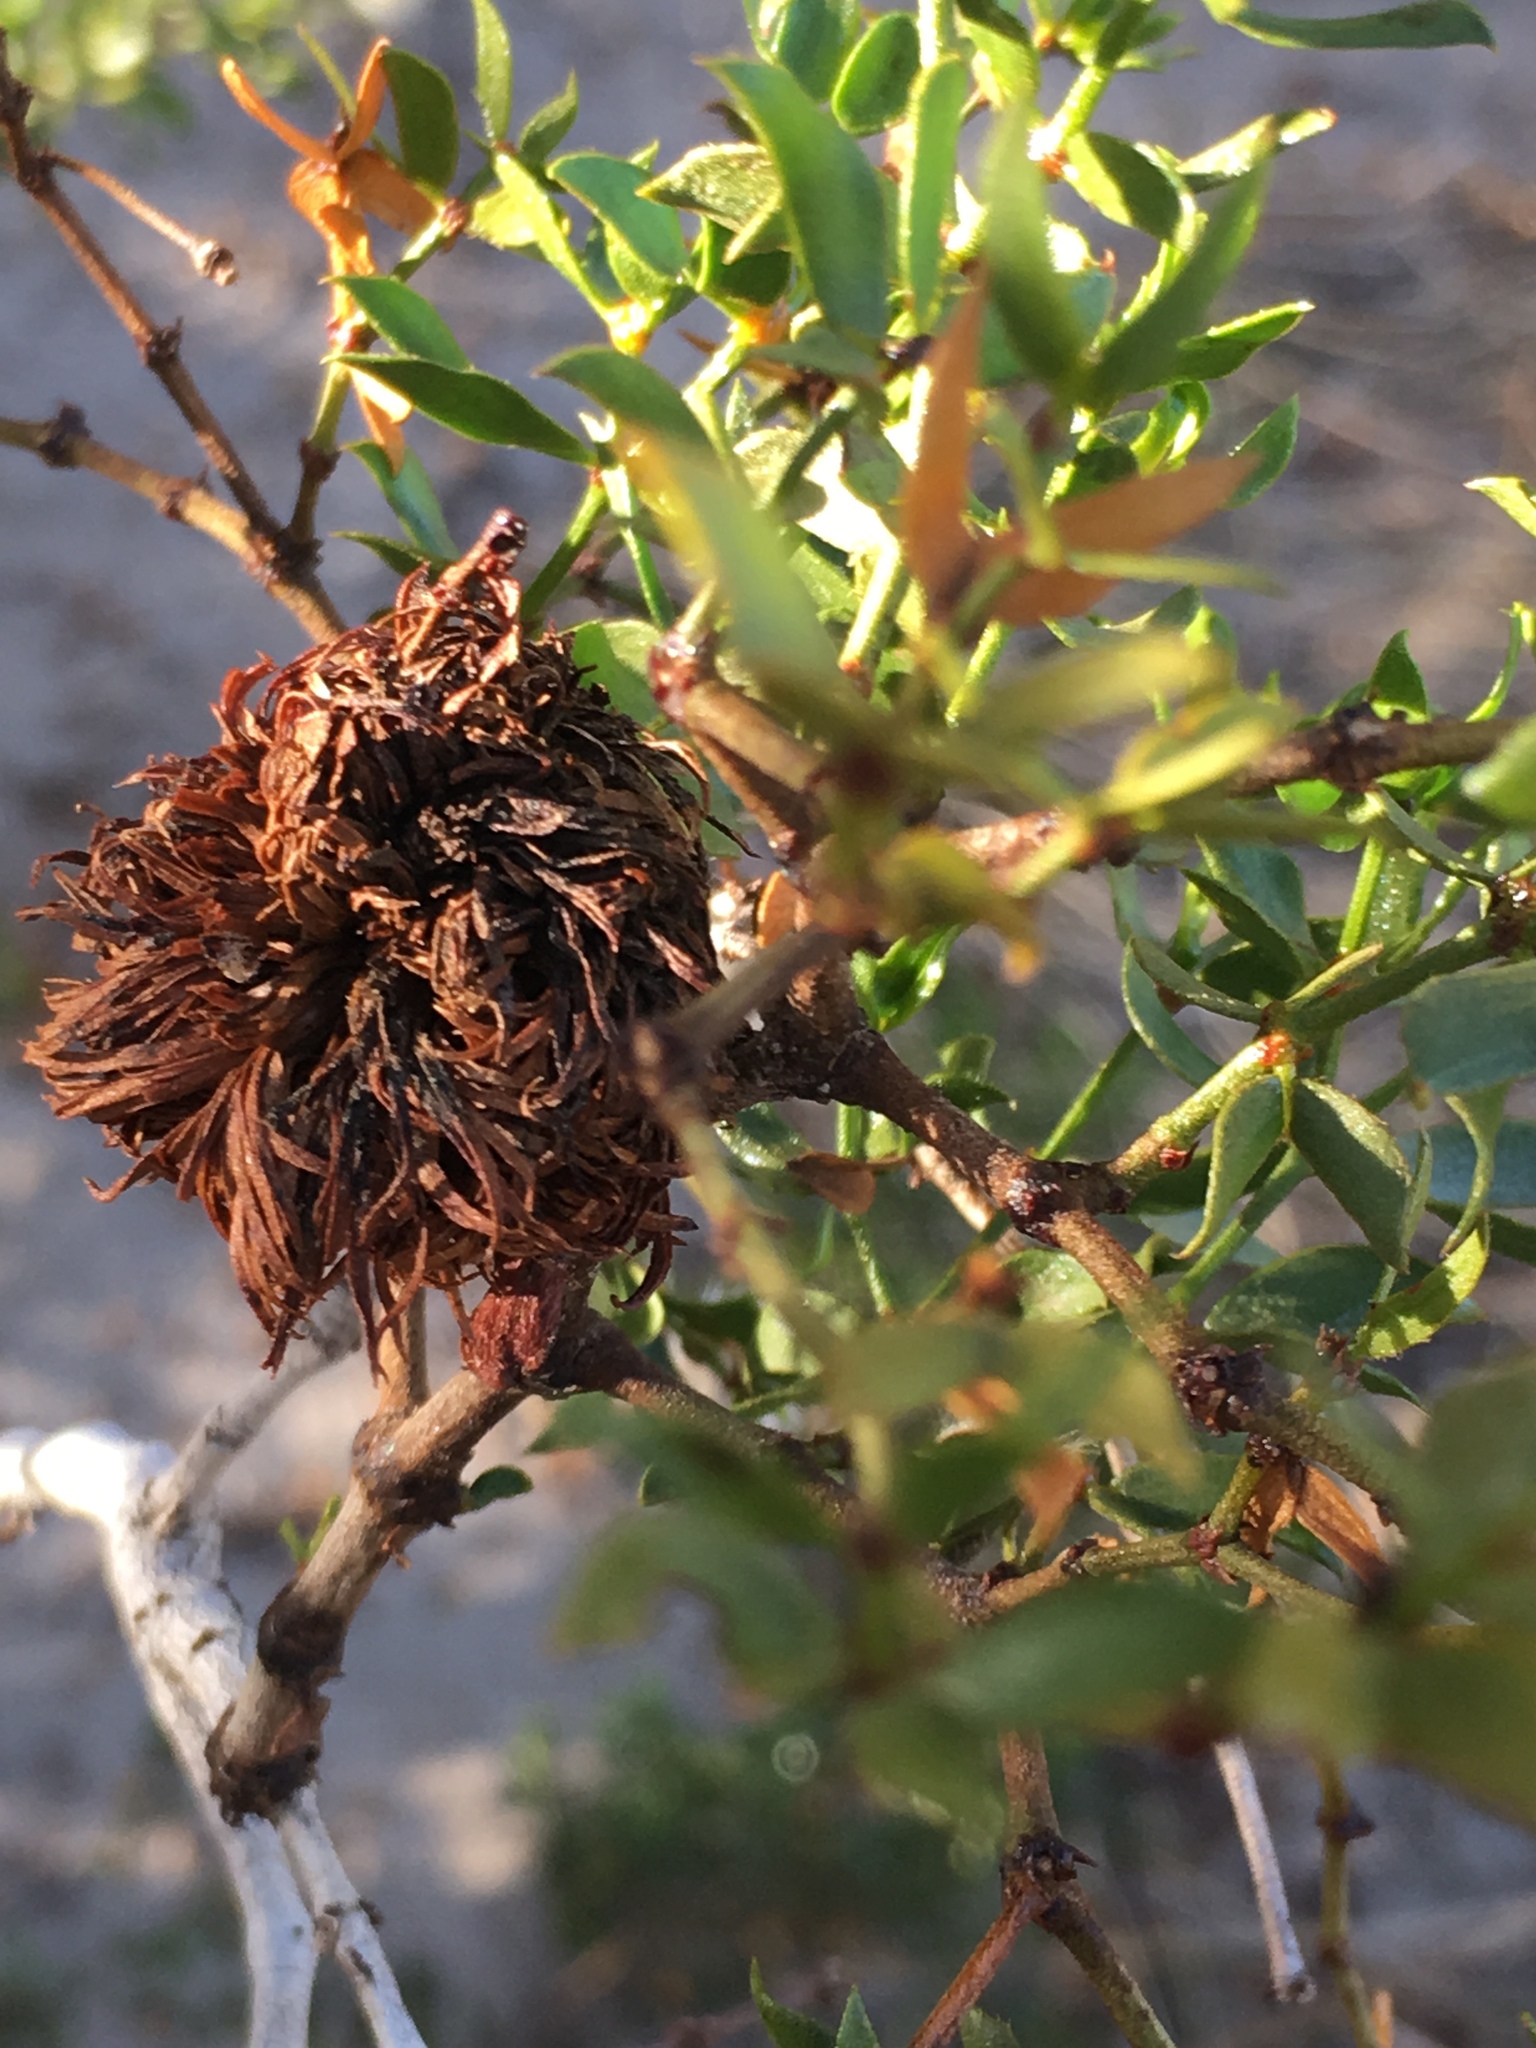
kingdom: Animalia
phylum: Arthropoda
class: Insecta
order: Diptera
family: Cecidomyiidae
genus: Asphondylia
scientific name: Asphondylia auripila
